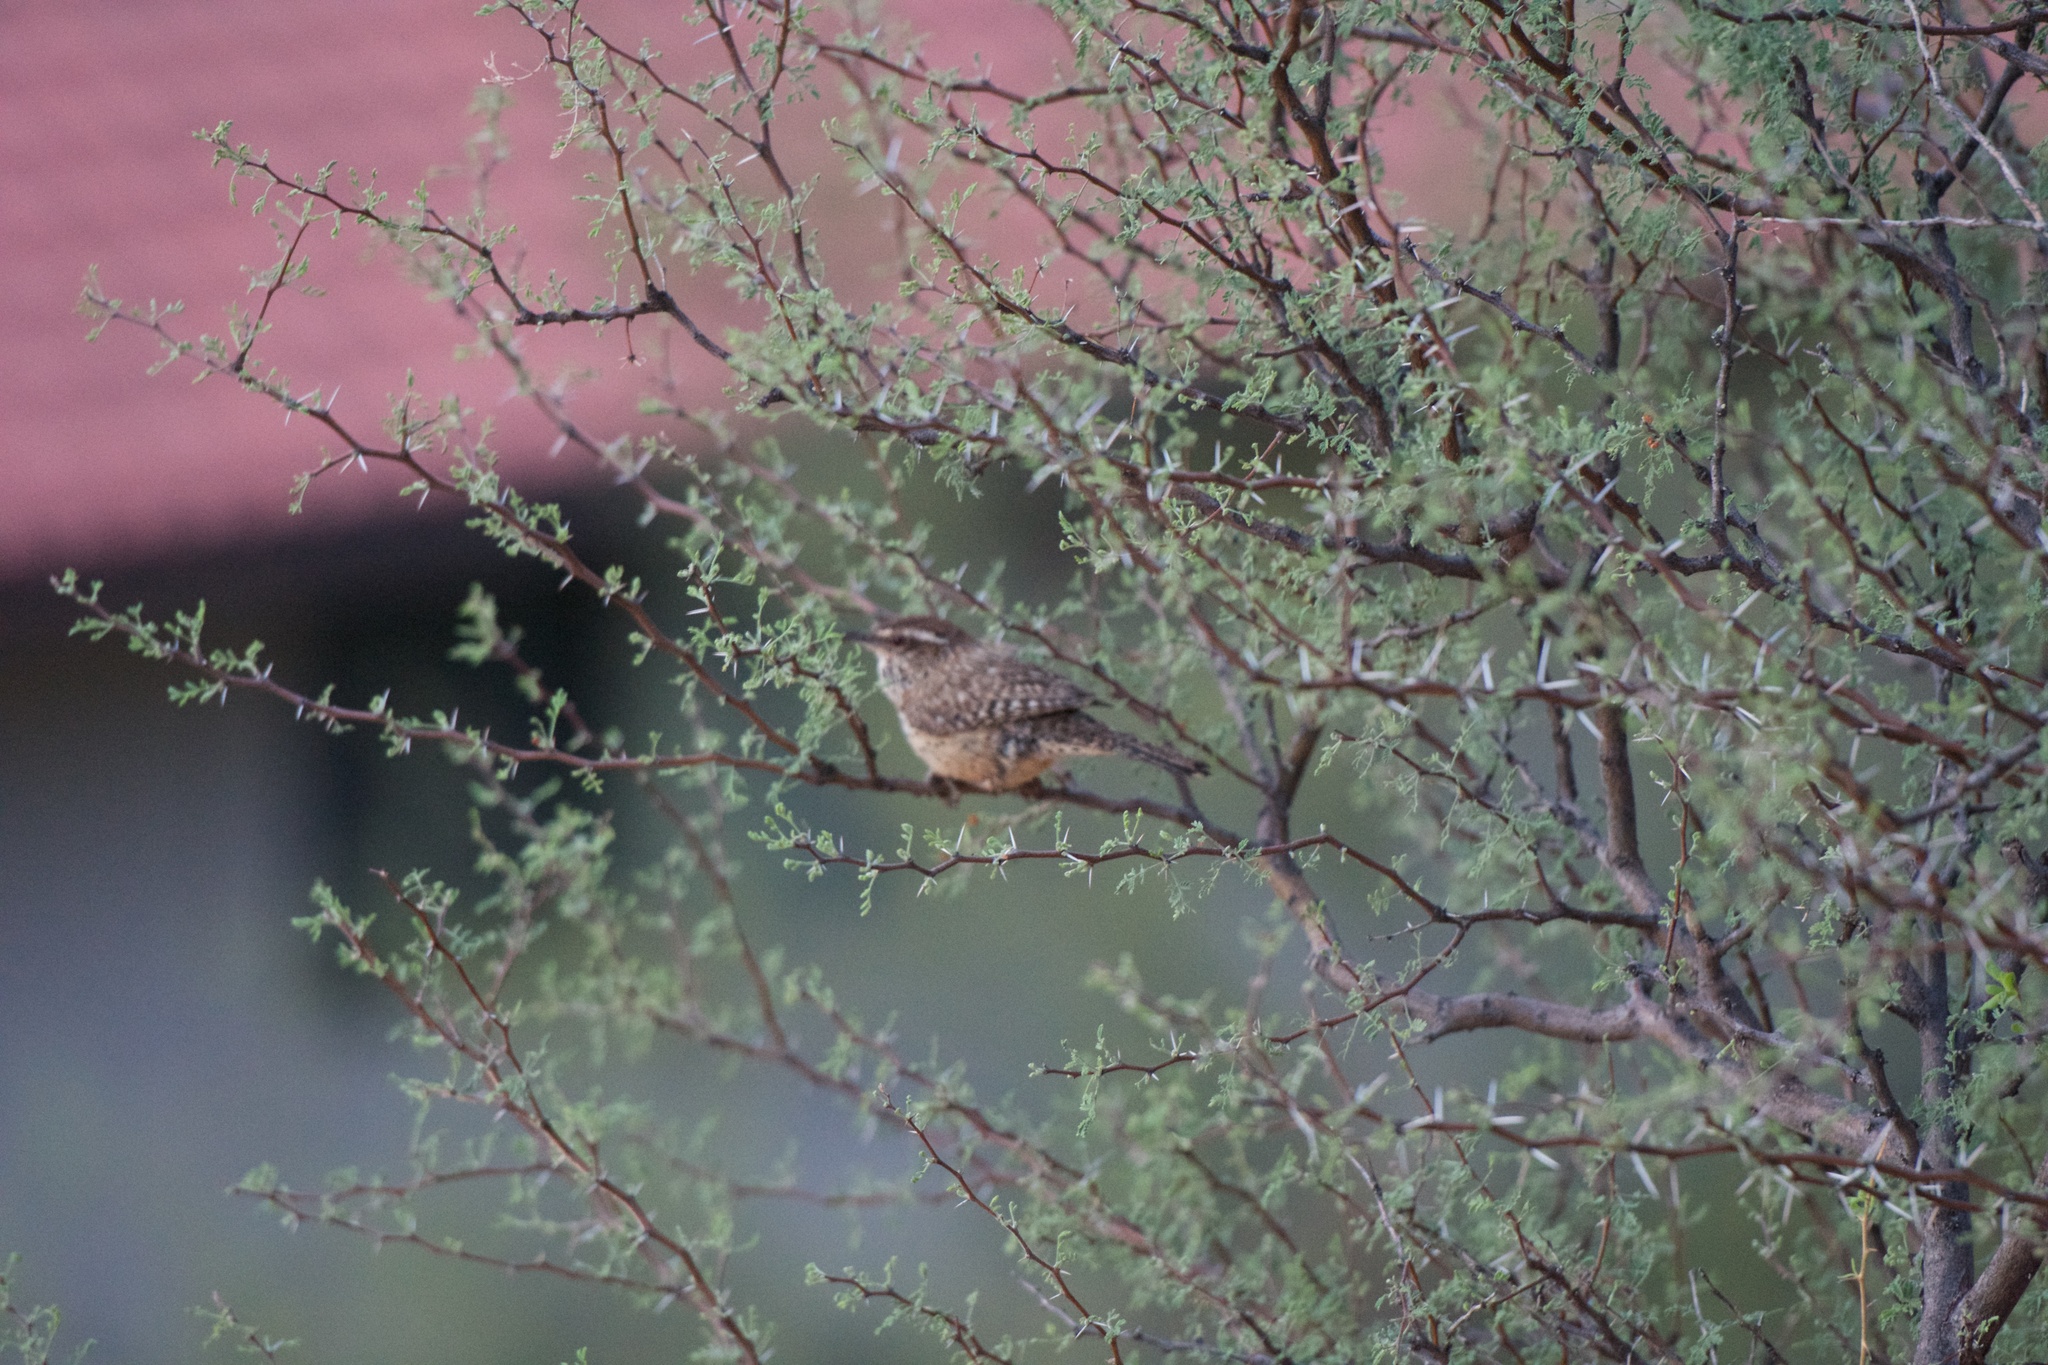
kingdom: Animalia
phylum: Chordata
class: Aves
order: Passeriformes
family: Troglodytidae
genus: Campylorhynchus
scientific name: Campylorhynchus brunneicapillus
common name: Cactus wren
